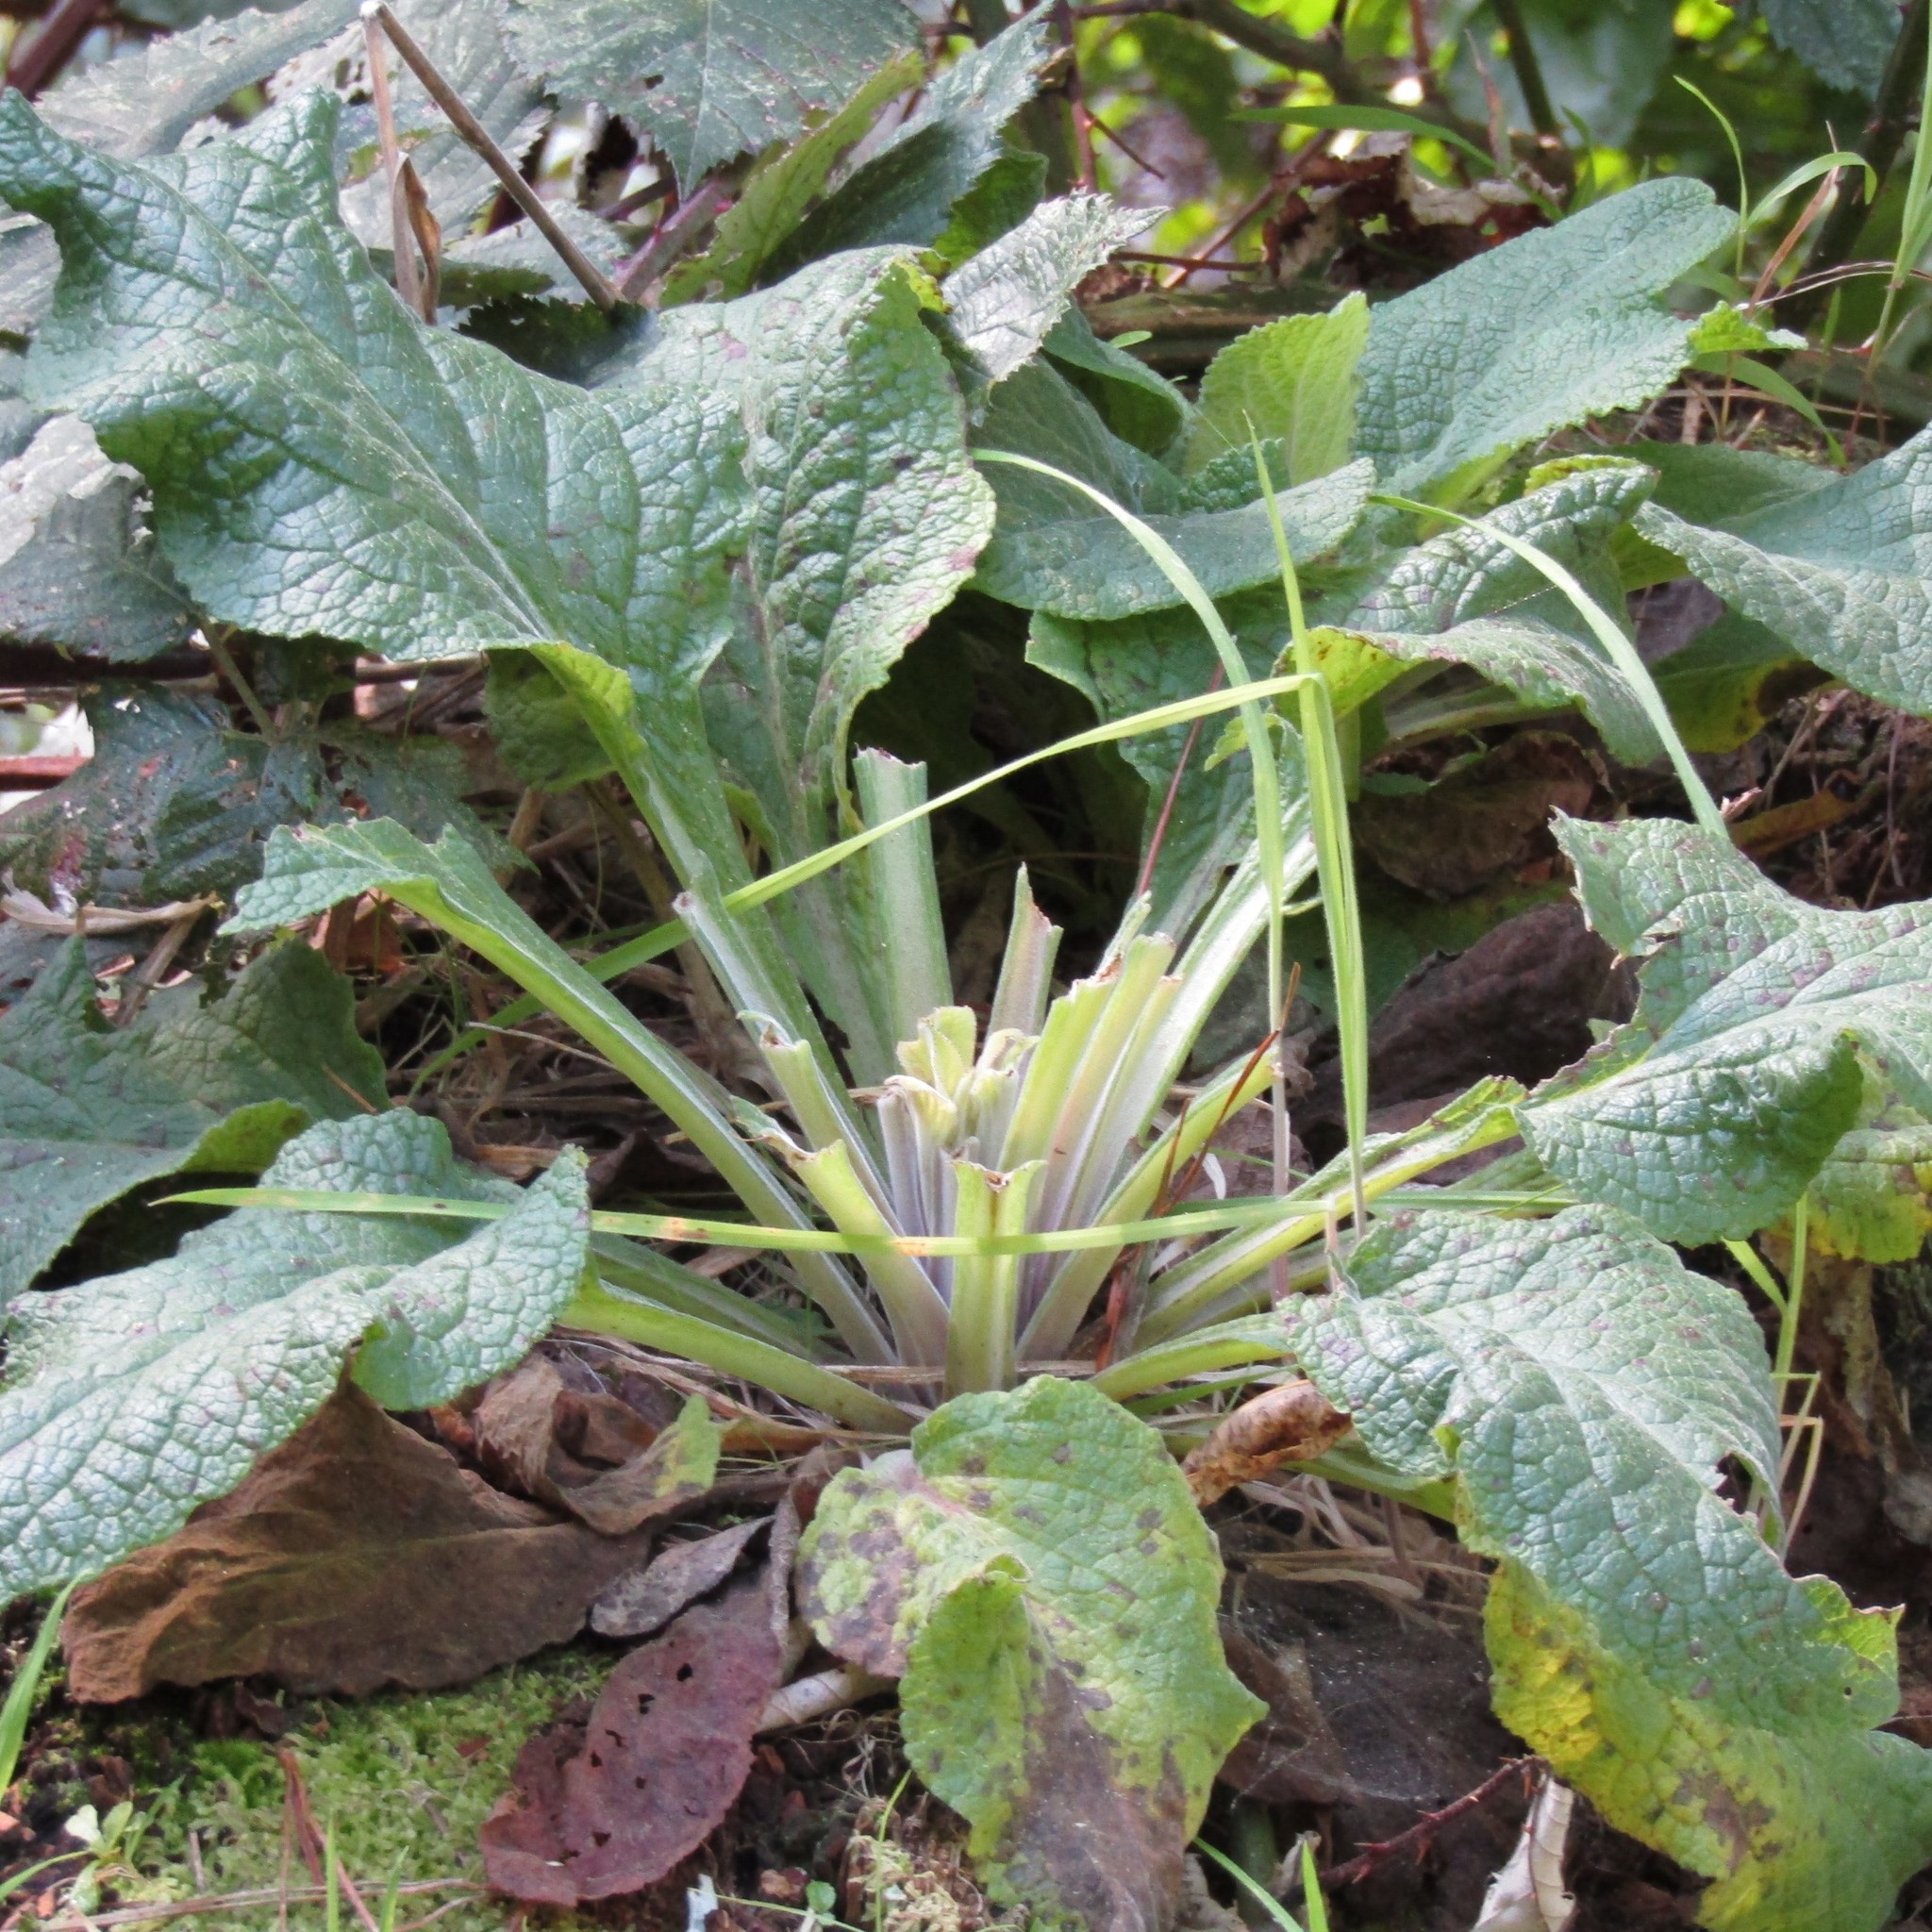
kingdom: Plantae
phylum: Tracheophyta
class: Magnoliopsida
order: Lamiales
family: Plantaginaceae
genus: Digitalis
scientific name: Digitalis purpurea
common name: Foxglove
